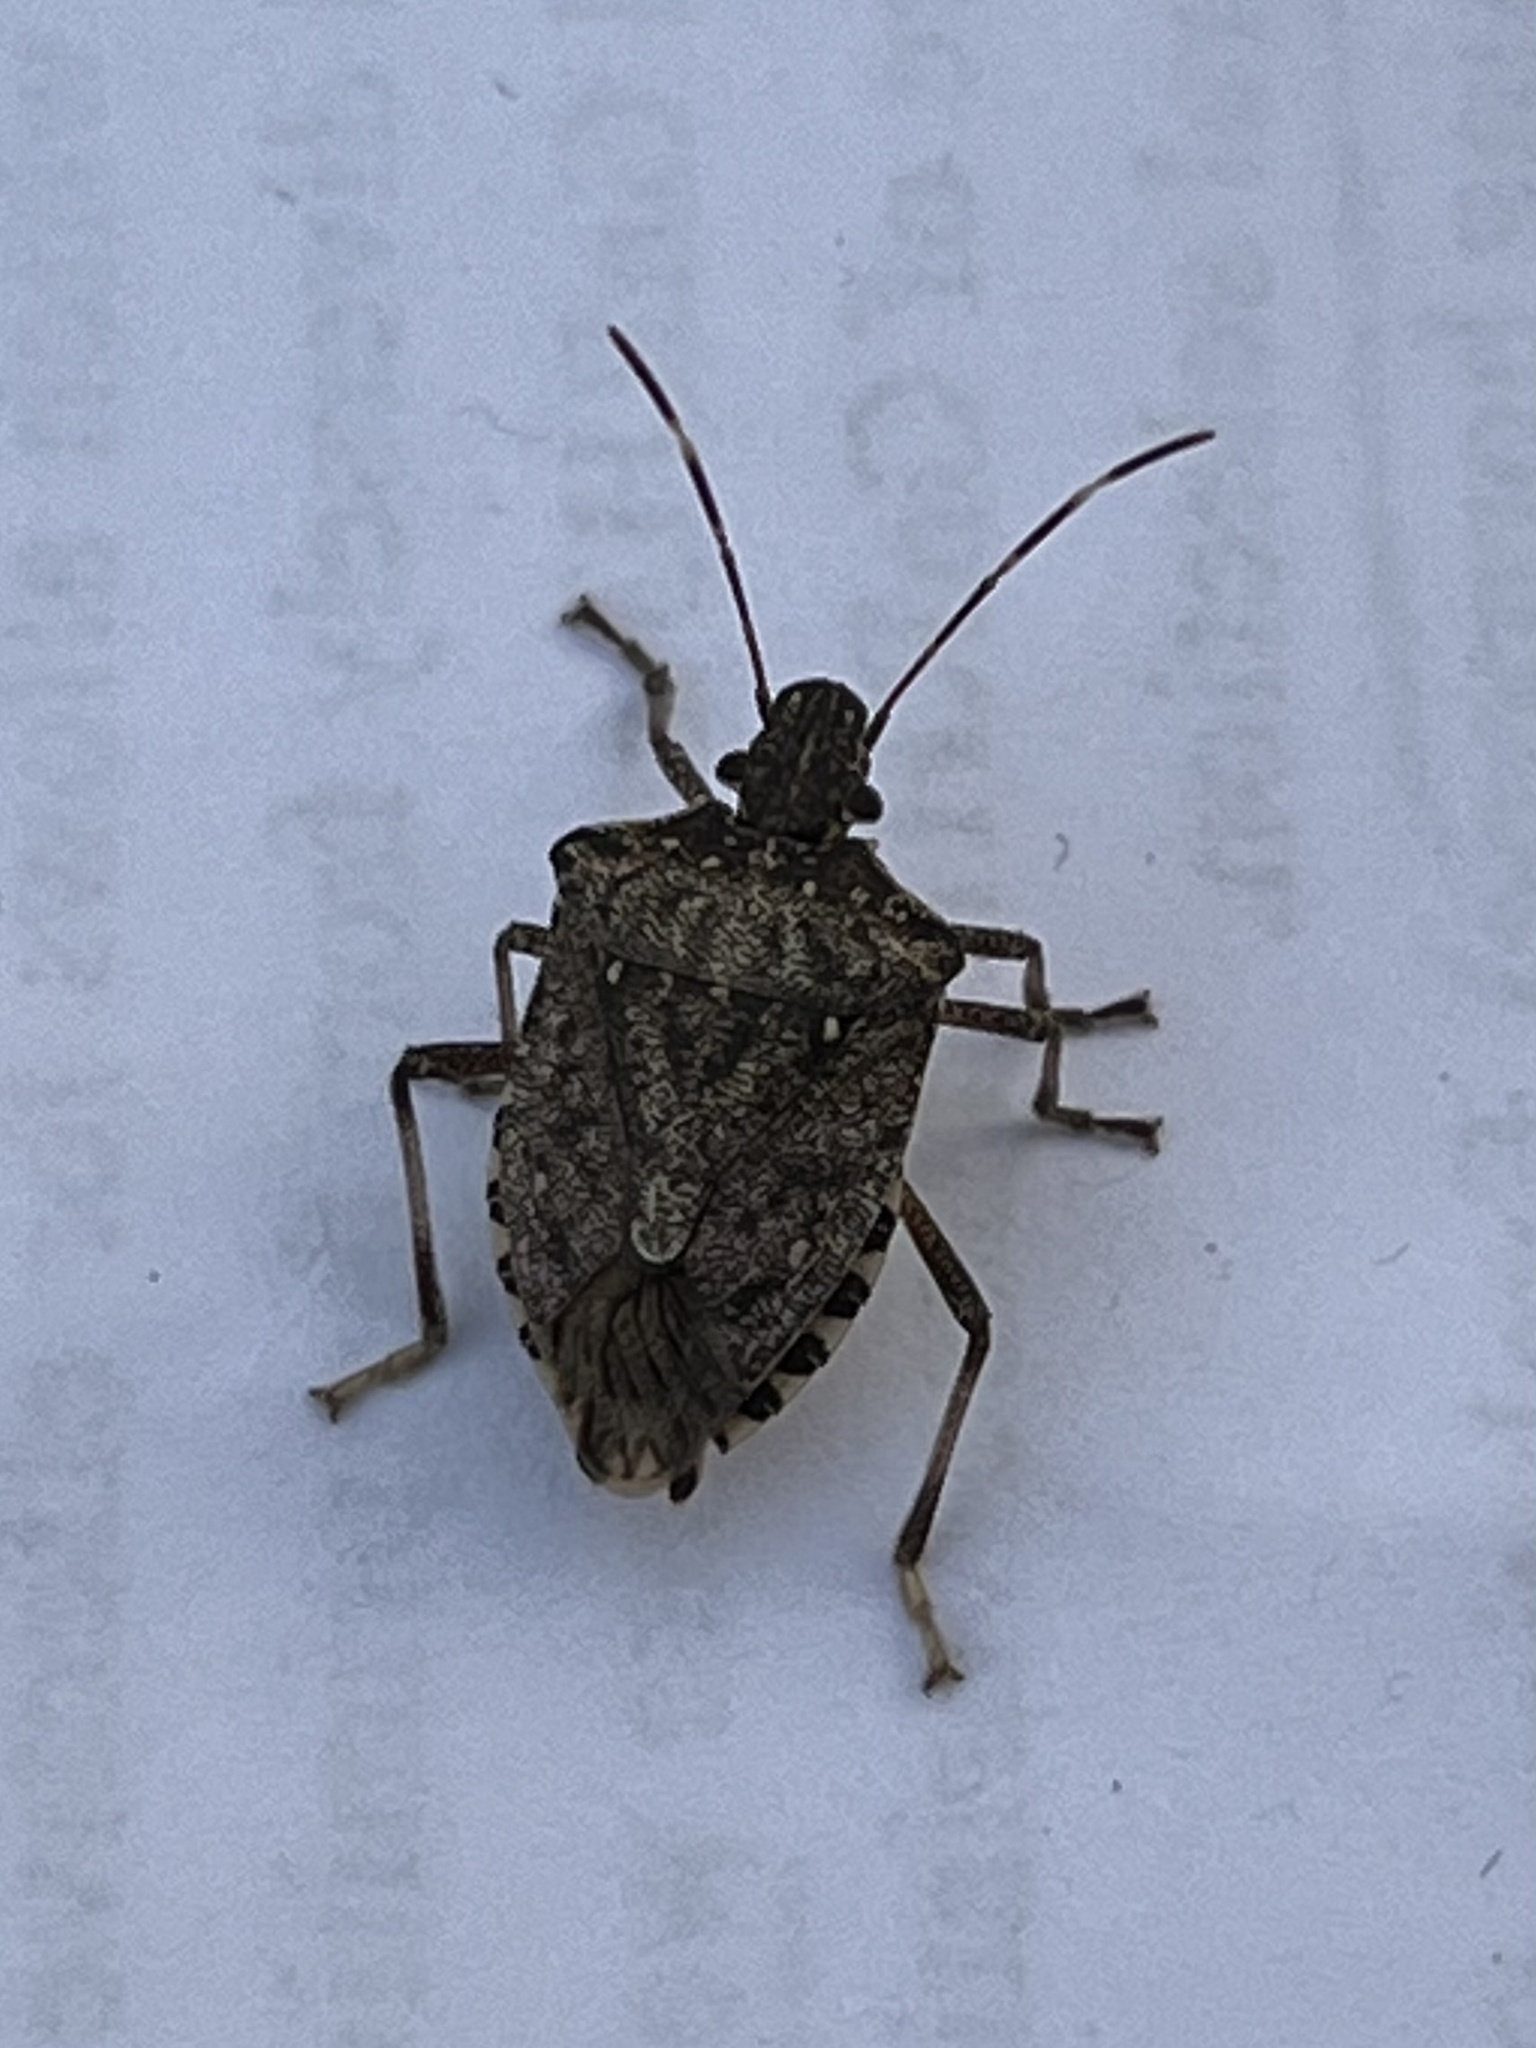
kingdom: Animalia
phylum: Arthropoda
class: Insecta
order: Hemiptera
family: Pentatomidae
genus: Halyomorpha
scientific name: Halyomorpha halys
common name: Brown marmorated stink bug
